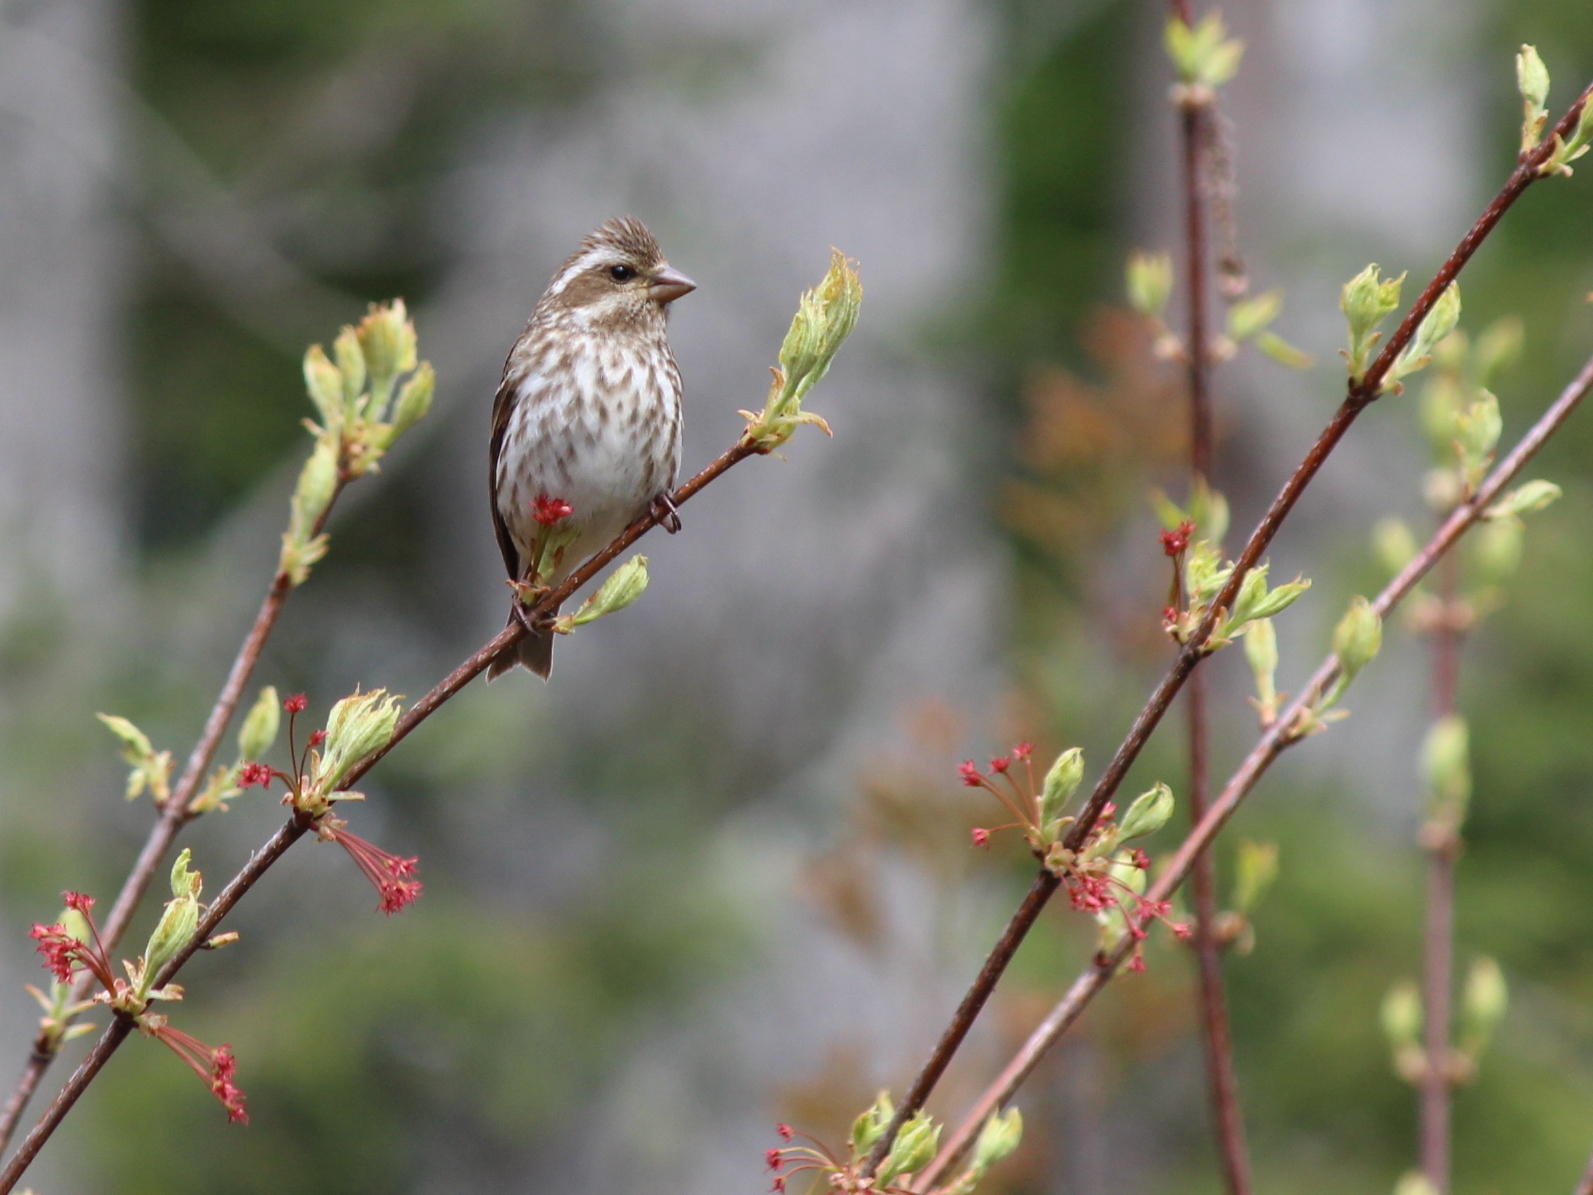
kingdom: Animalia
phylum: Chordata
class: Aves
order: Passeriformes
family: Fringillidae
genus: Haemorhous
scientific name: Haemorhous purpureus
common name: Purple finch
